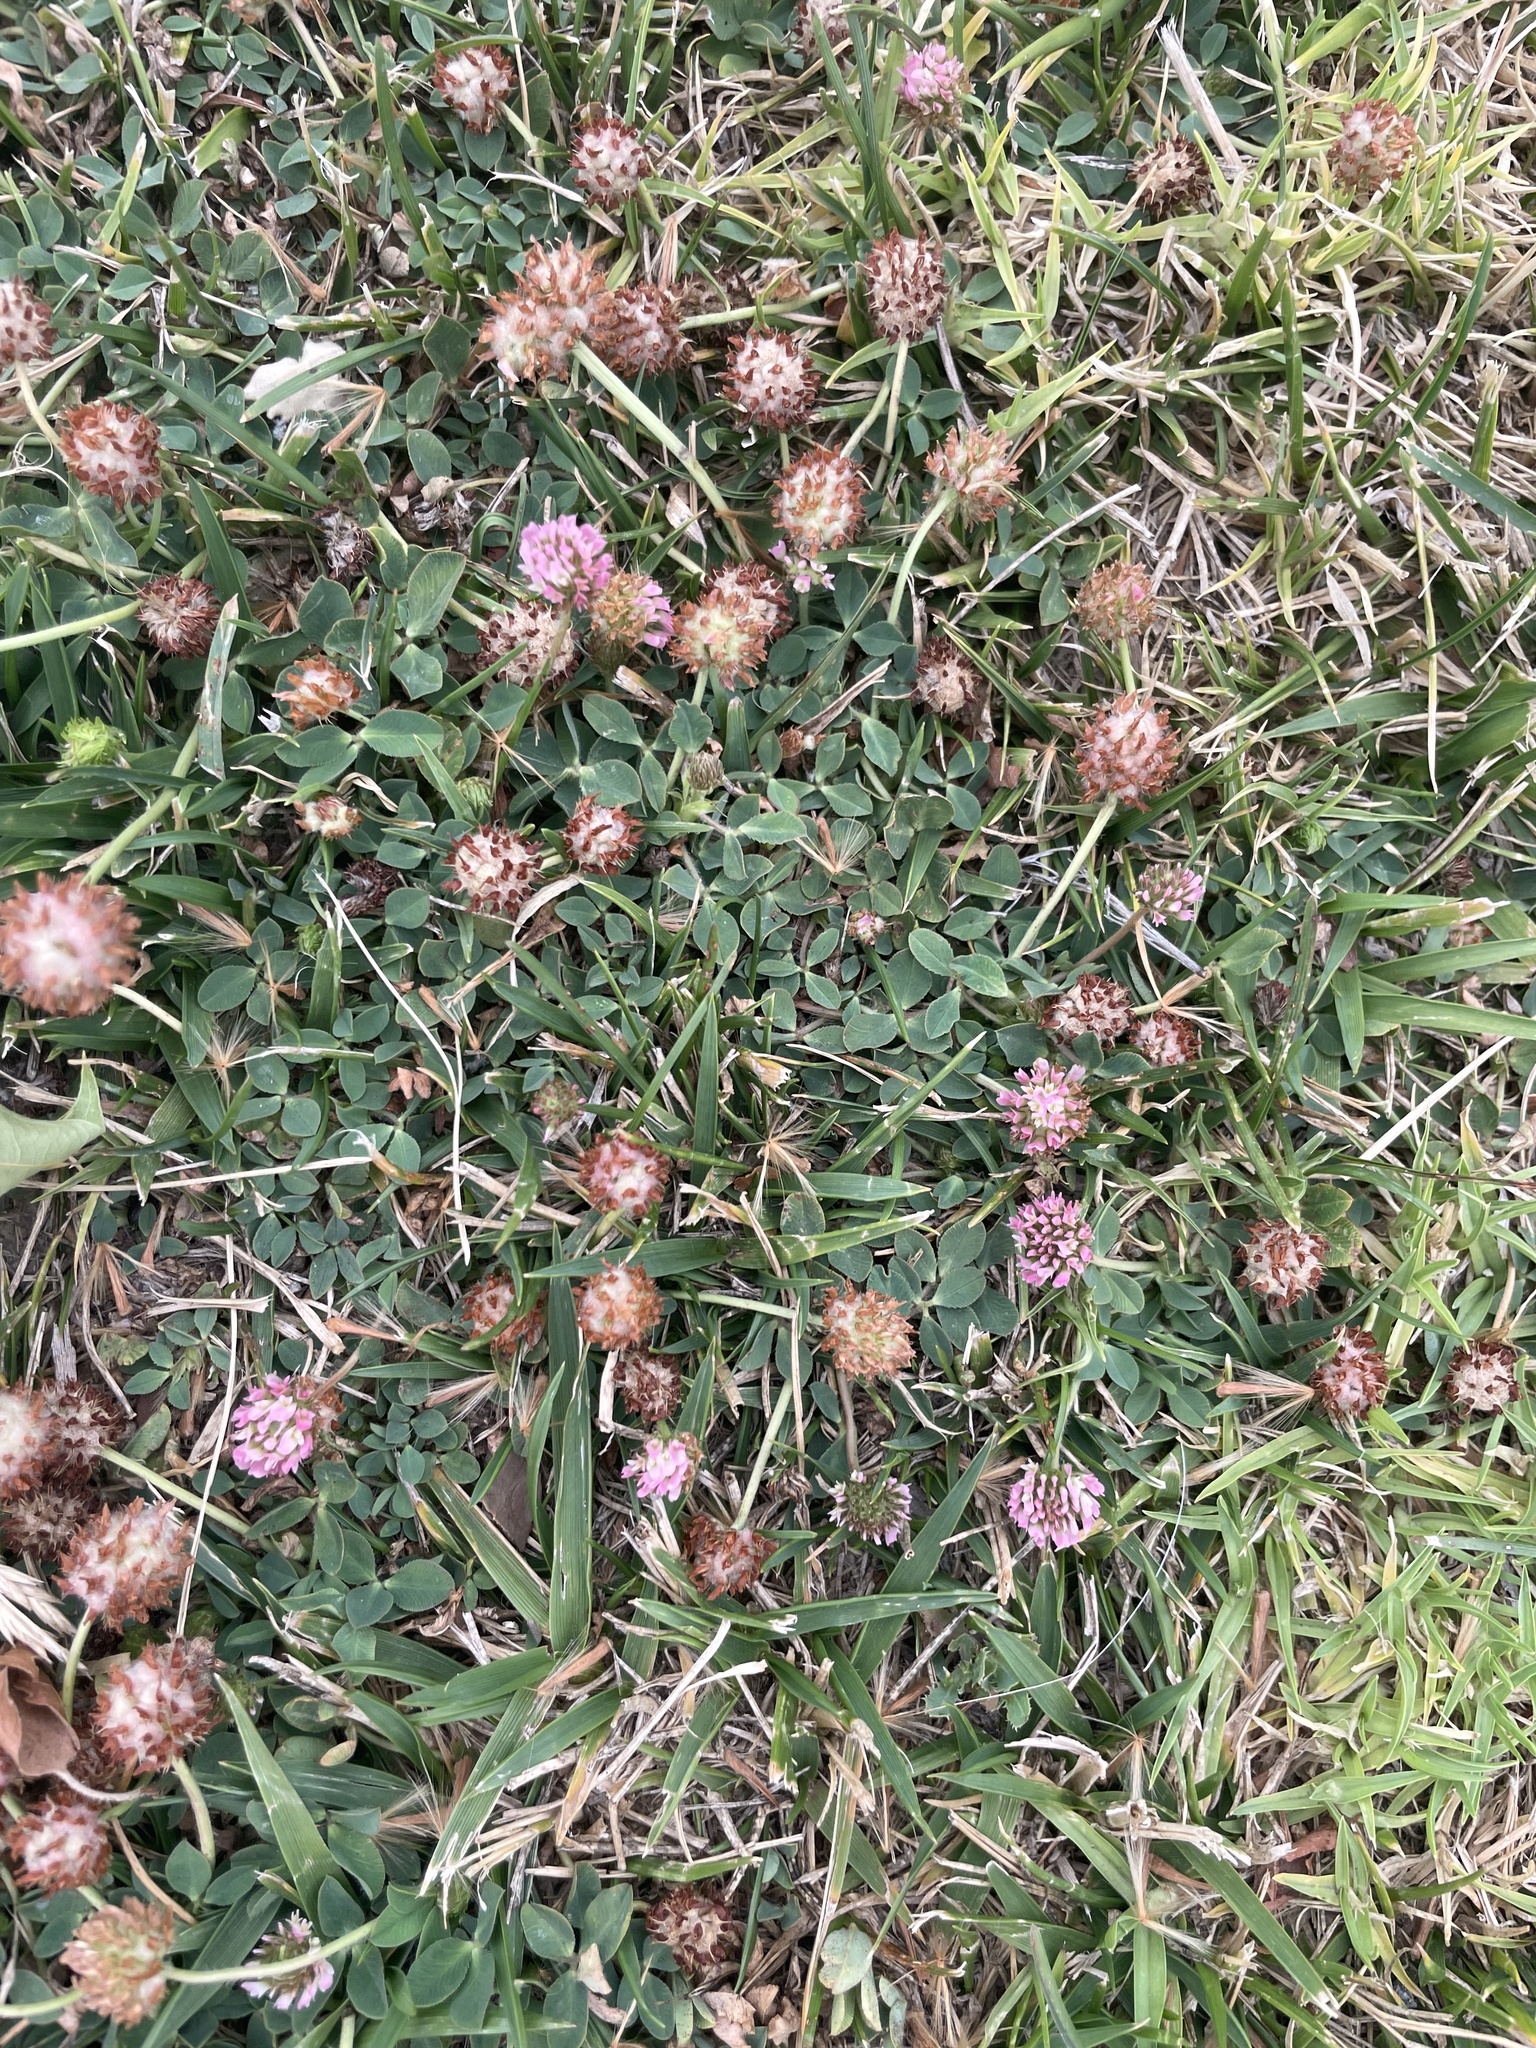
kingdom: Plantae
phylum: Tracheophyta
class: Magnoliopsida
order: Fabales
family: Fabaceae
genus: Trifolium
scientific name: Trifolium fragiferum
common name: Strawberry clover
